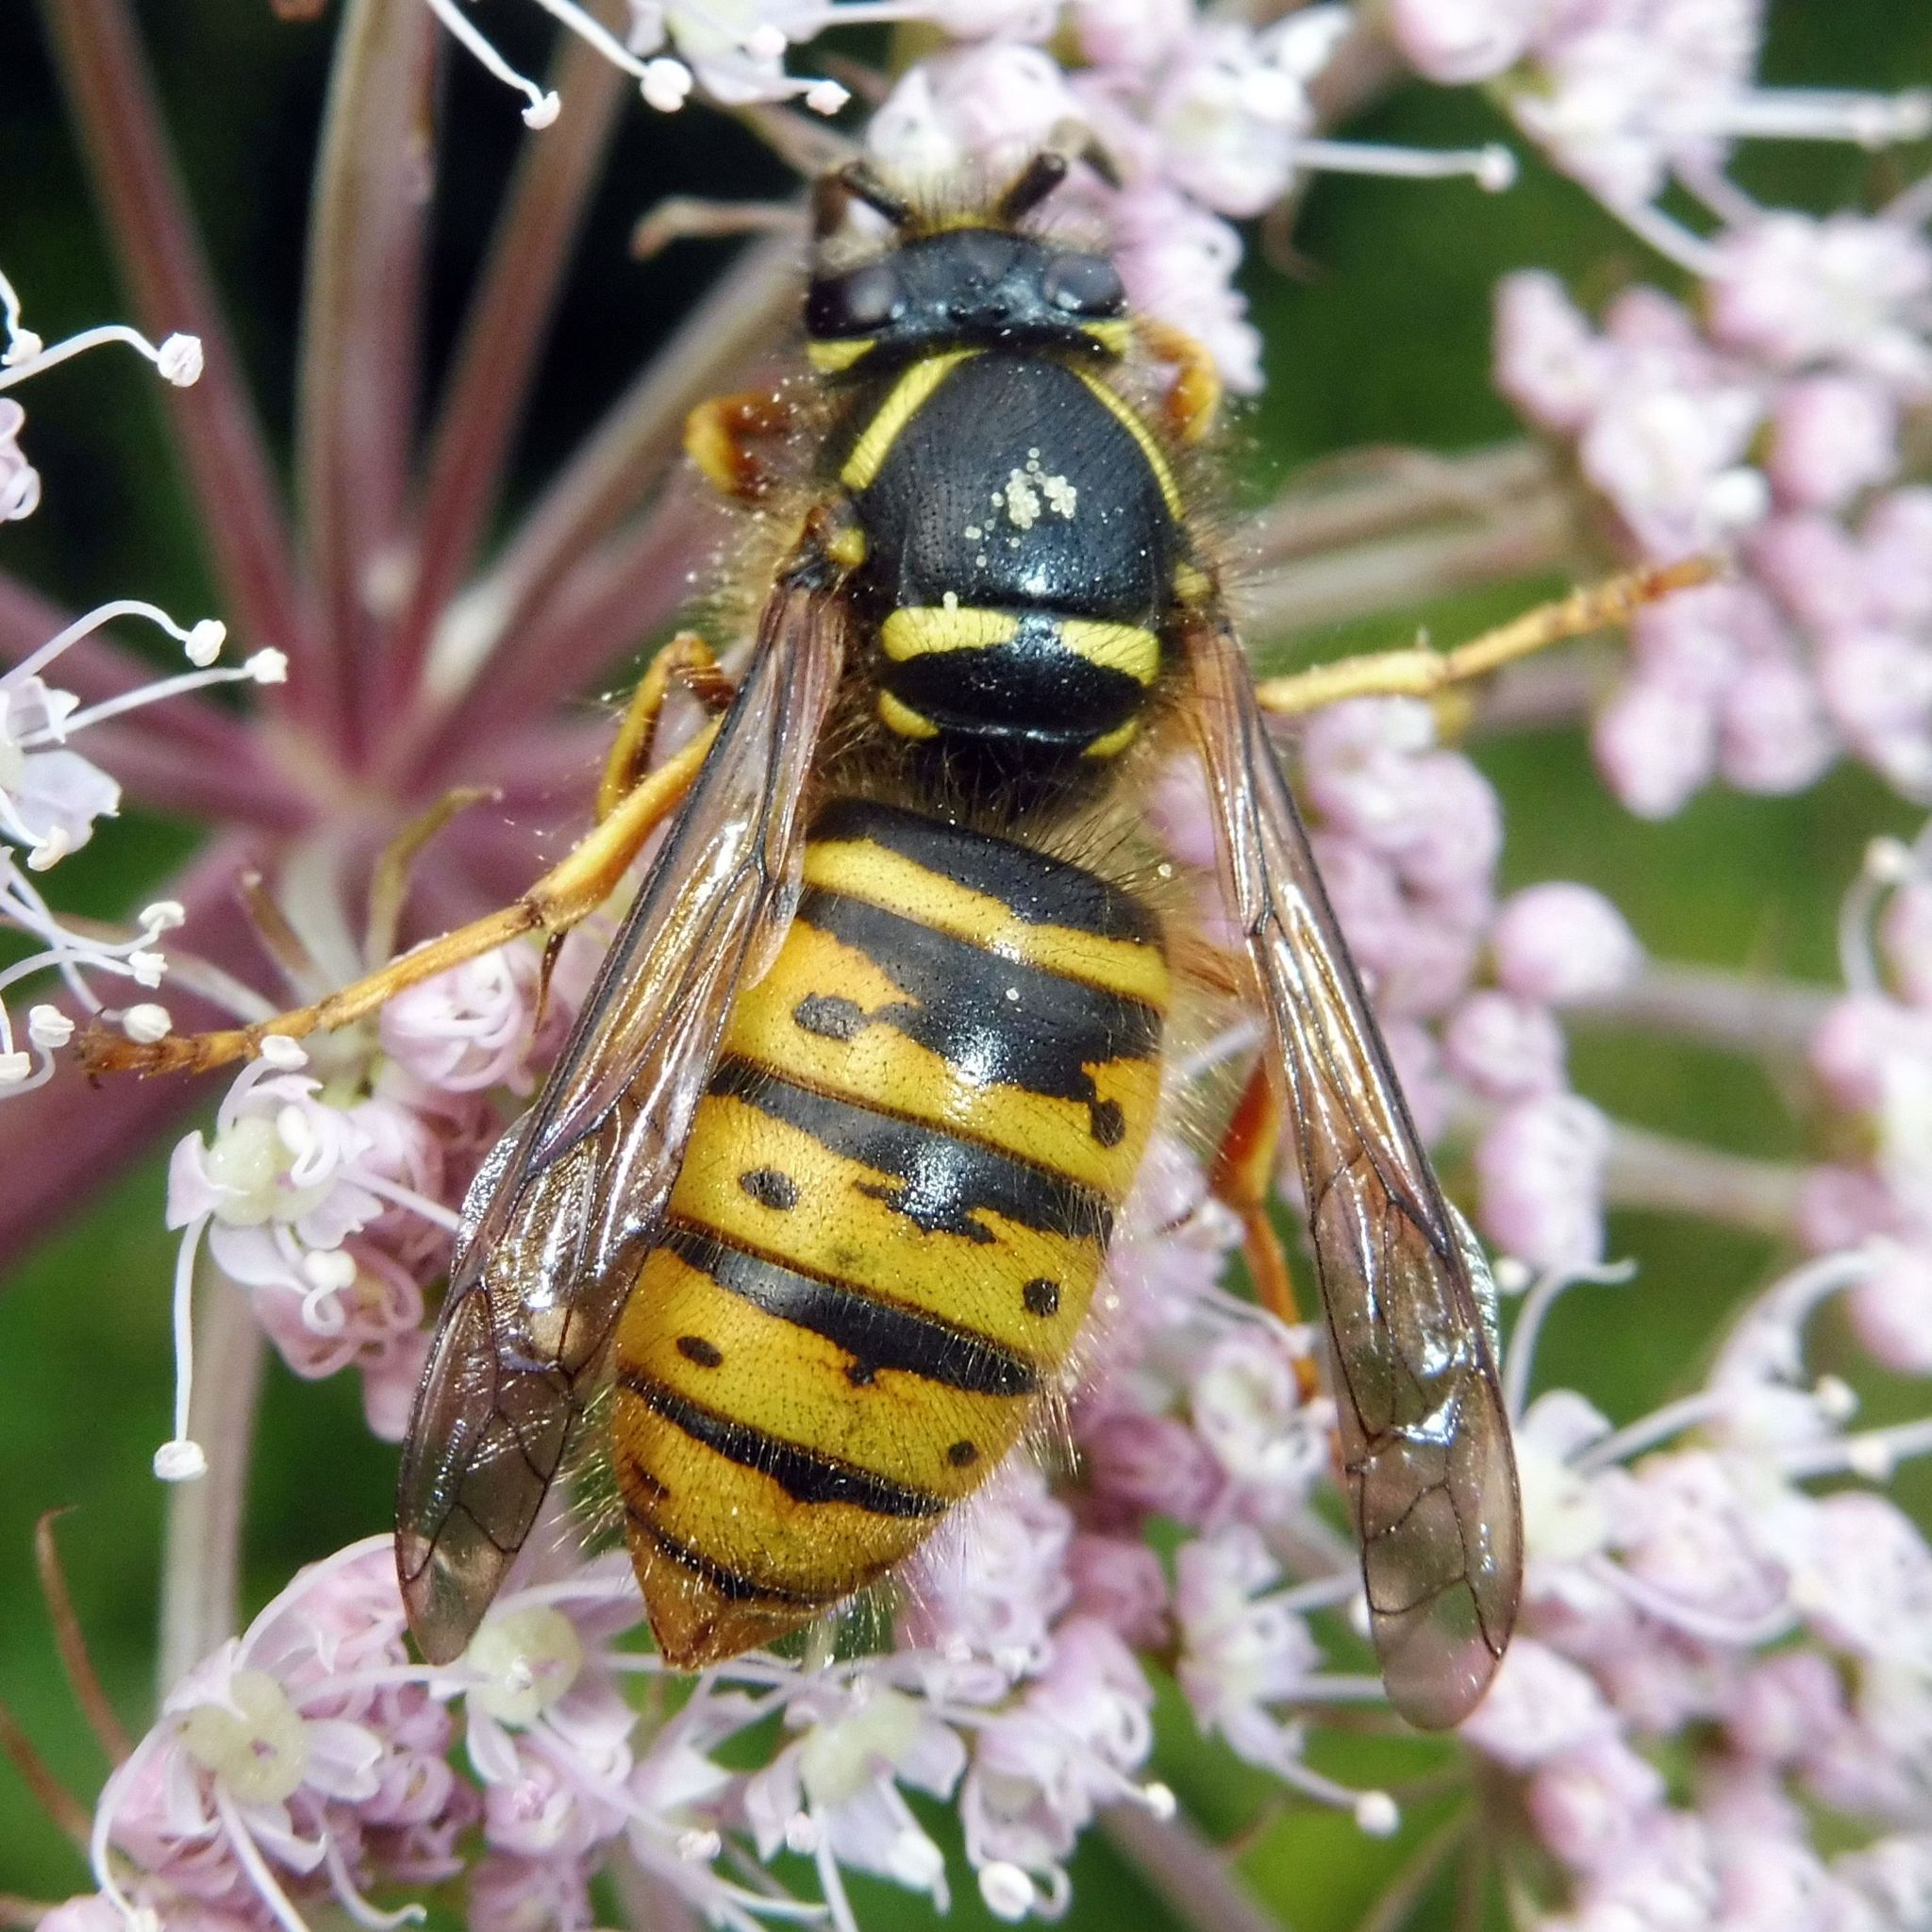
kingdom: Animalia
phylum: Arthropoda
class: Insecta
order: Hymenoptera
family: Vespidae
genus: Dolichovespula
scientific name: Dolichovespula saxonica
